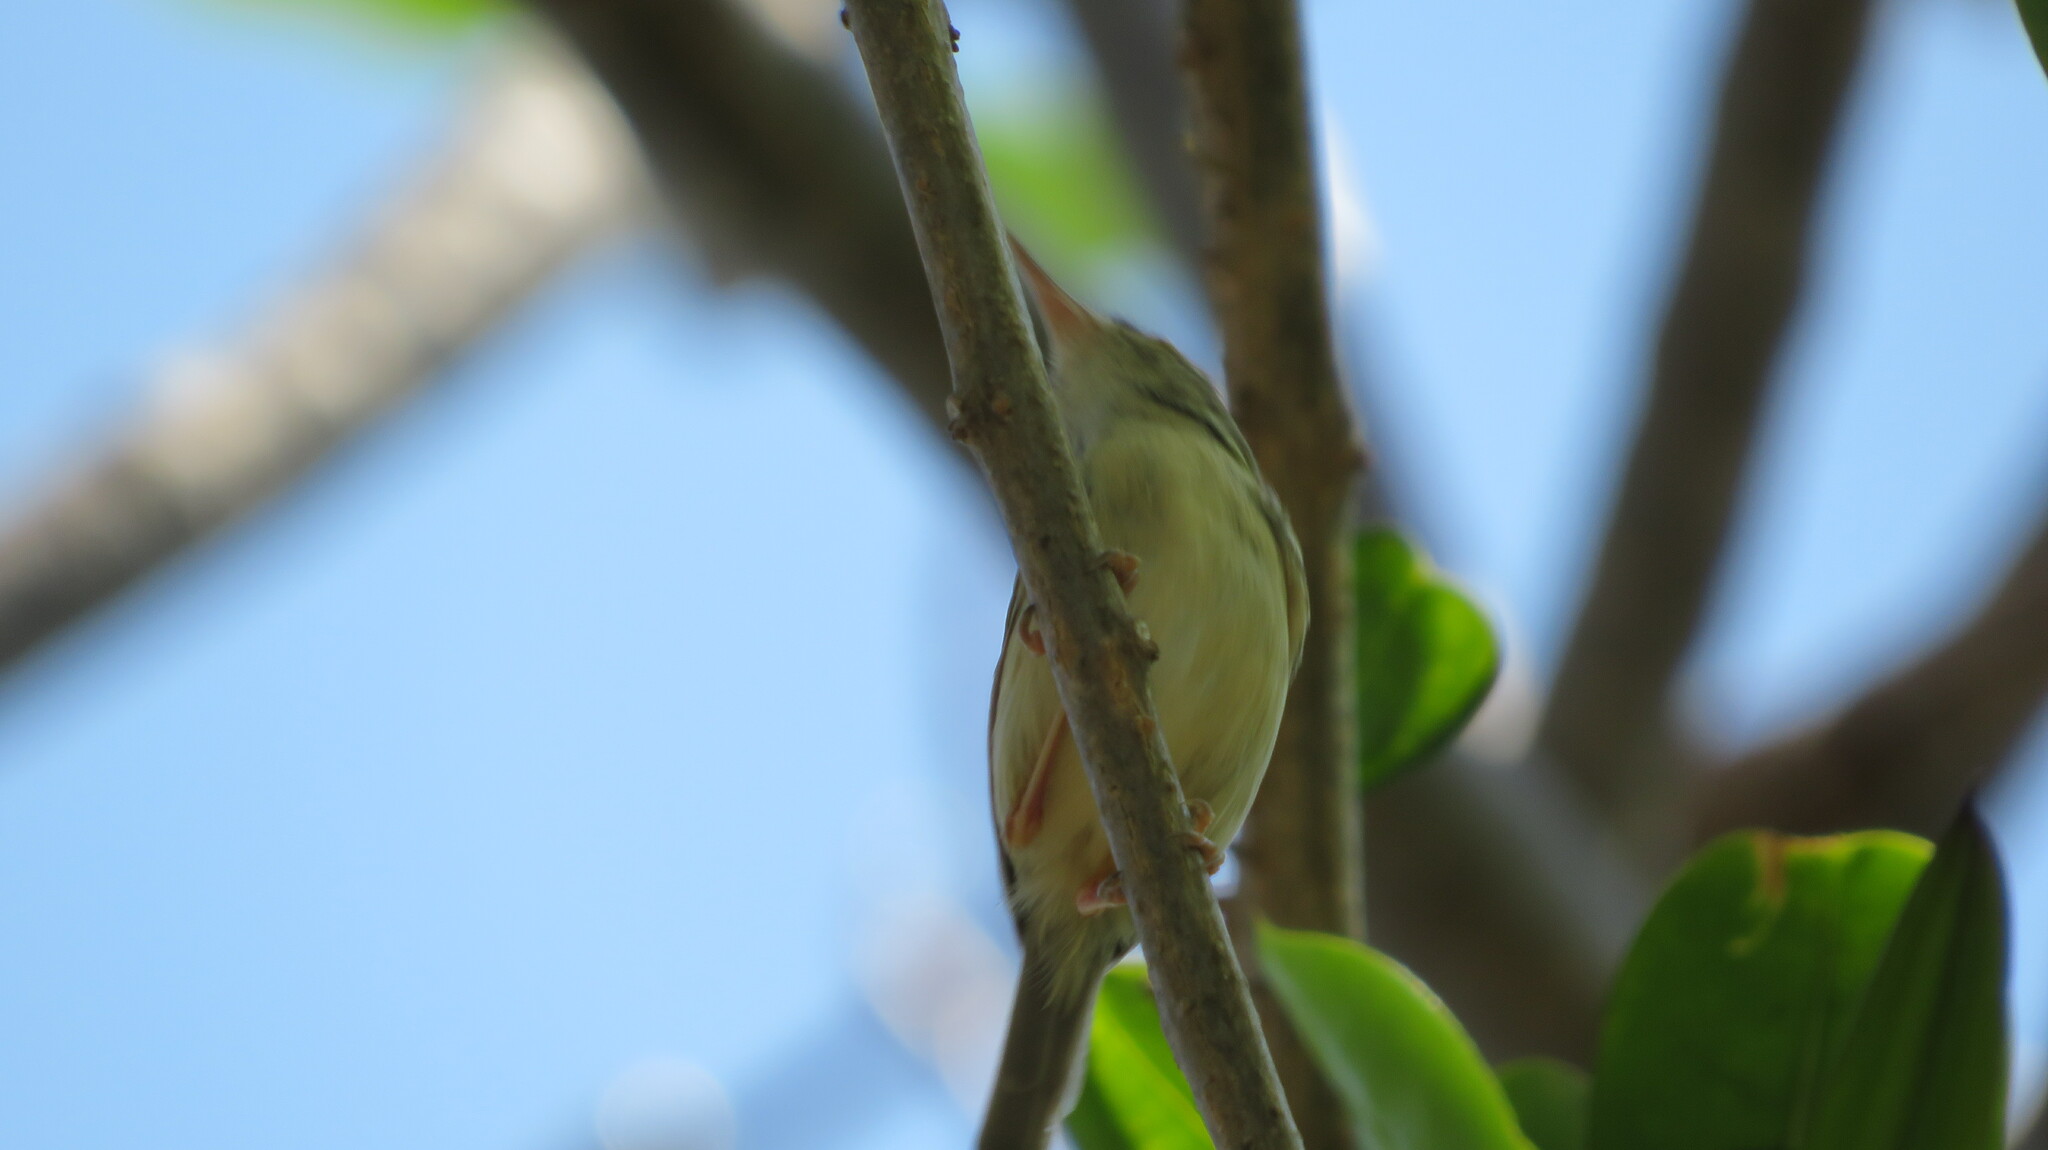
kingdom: Animalia
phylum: Chordata
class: Aves
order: Passeriformes
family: Cisticolidae
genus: Orthotomus
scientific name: Orthotomus sutorius
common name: Common tailorbird
